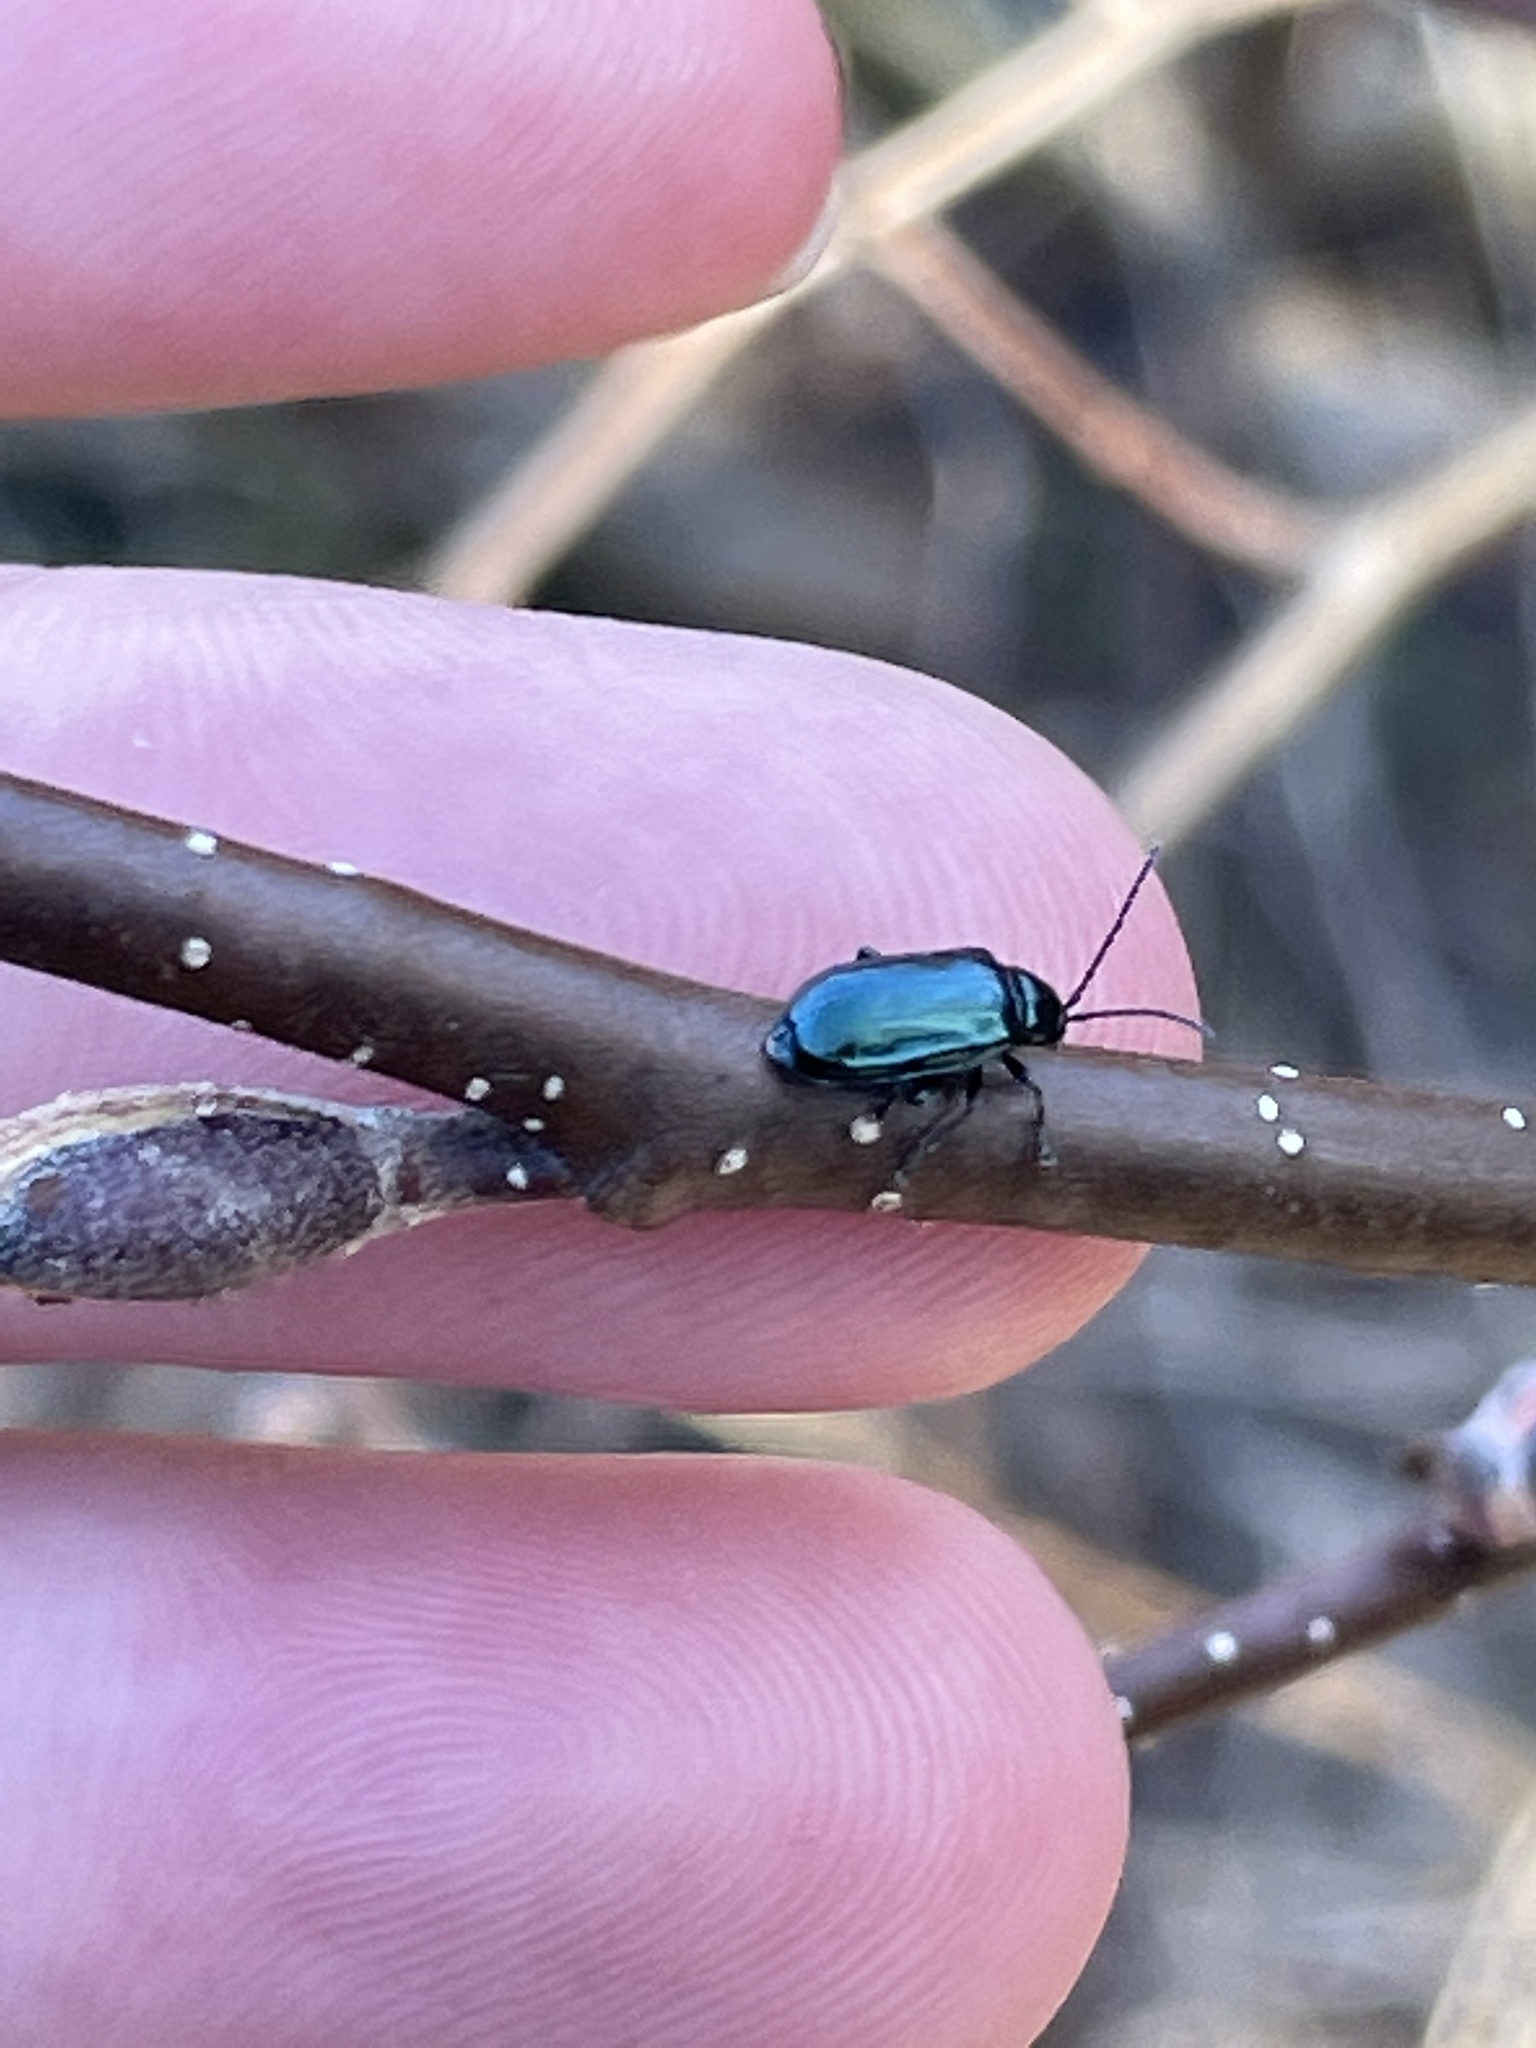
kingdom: Animalia
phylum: Arthropoda
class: Insecta
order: Coleoptera
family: Chrysomelidae
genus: Altica
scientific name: Altica ambiens
